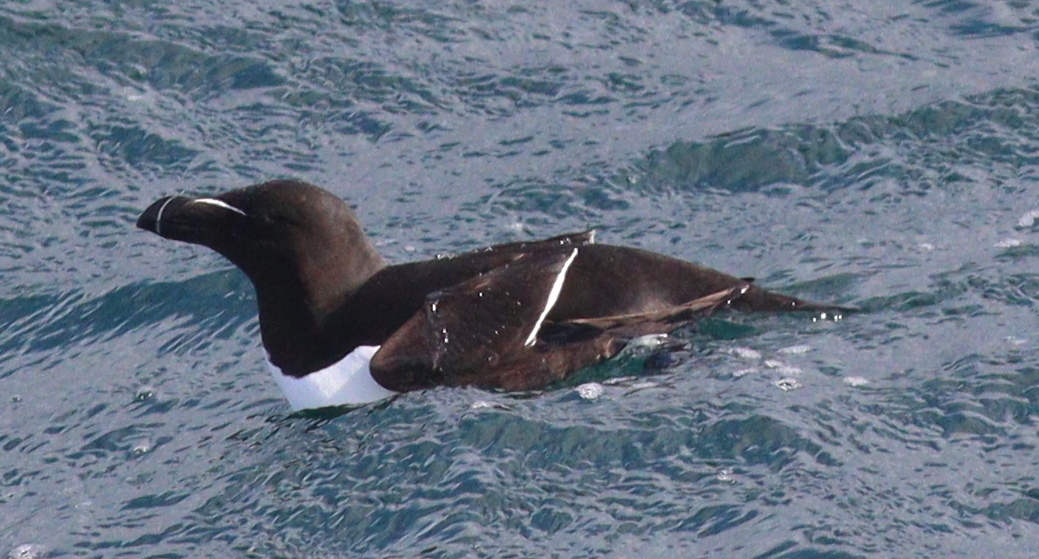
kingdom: Animalia
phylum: Chordata
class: Aves
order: Charadriiformes
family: Alcidae
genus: Alca
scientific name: Alca torda
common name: Razorbill
